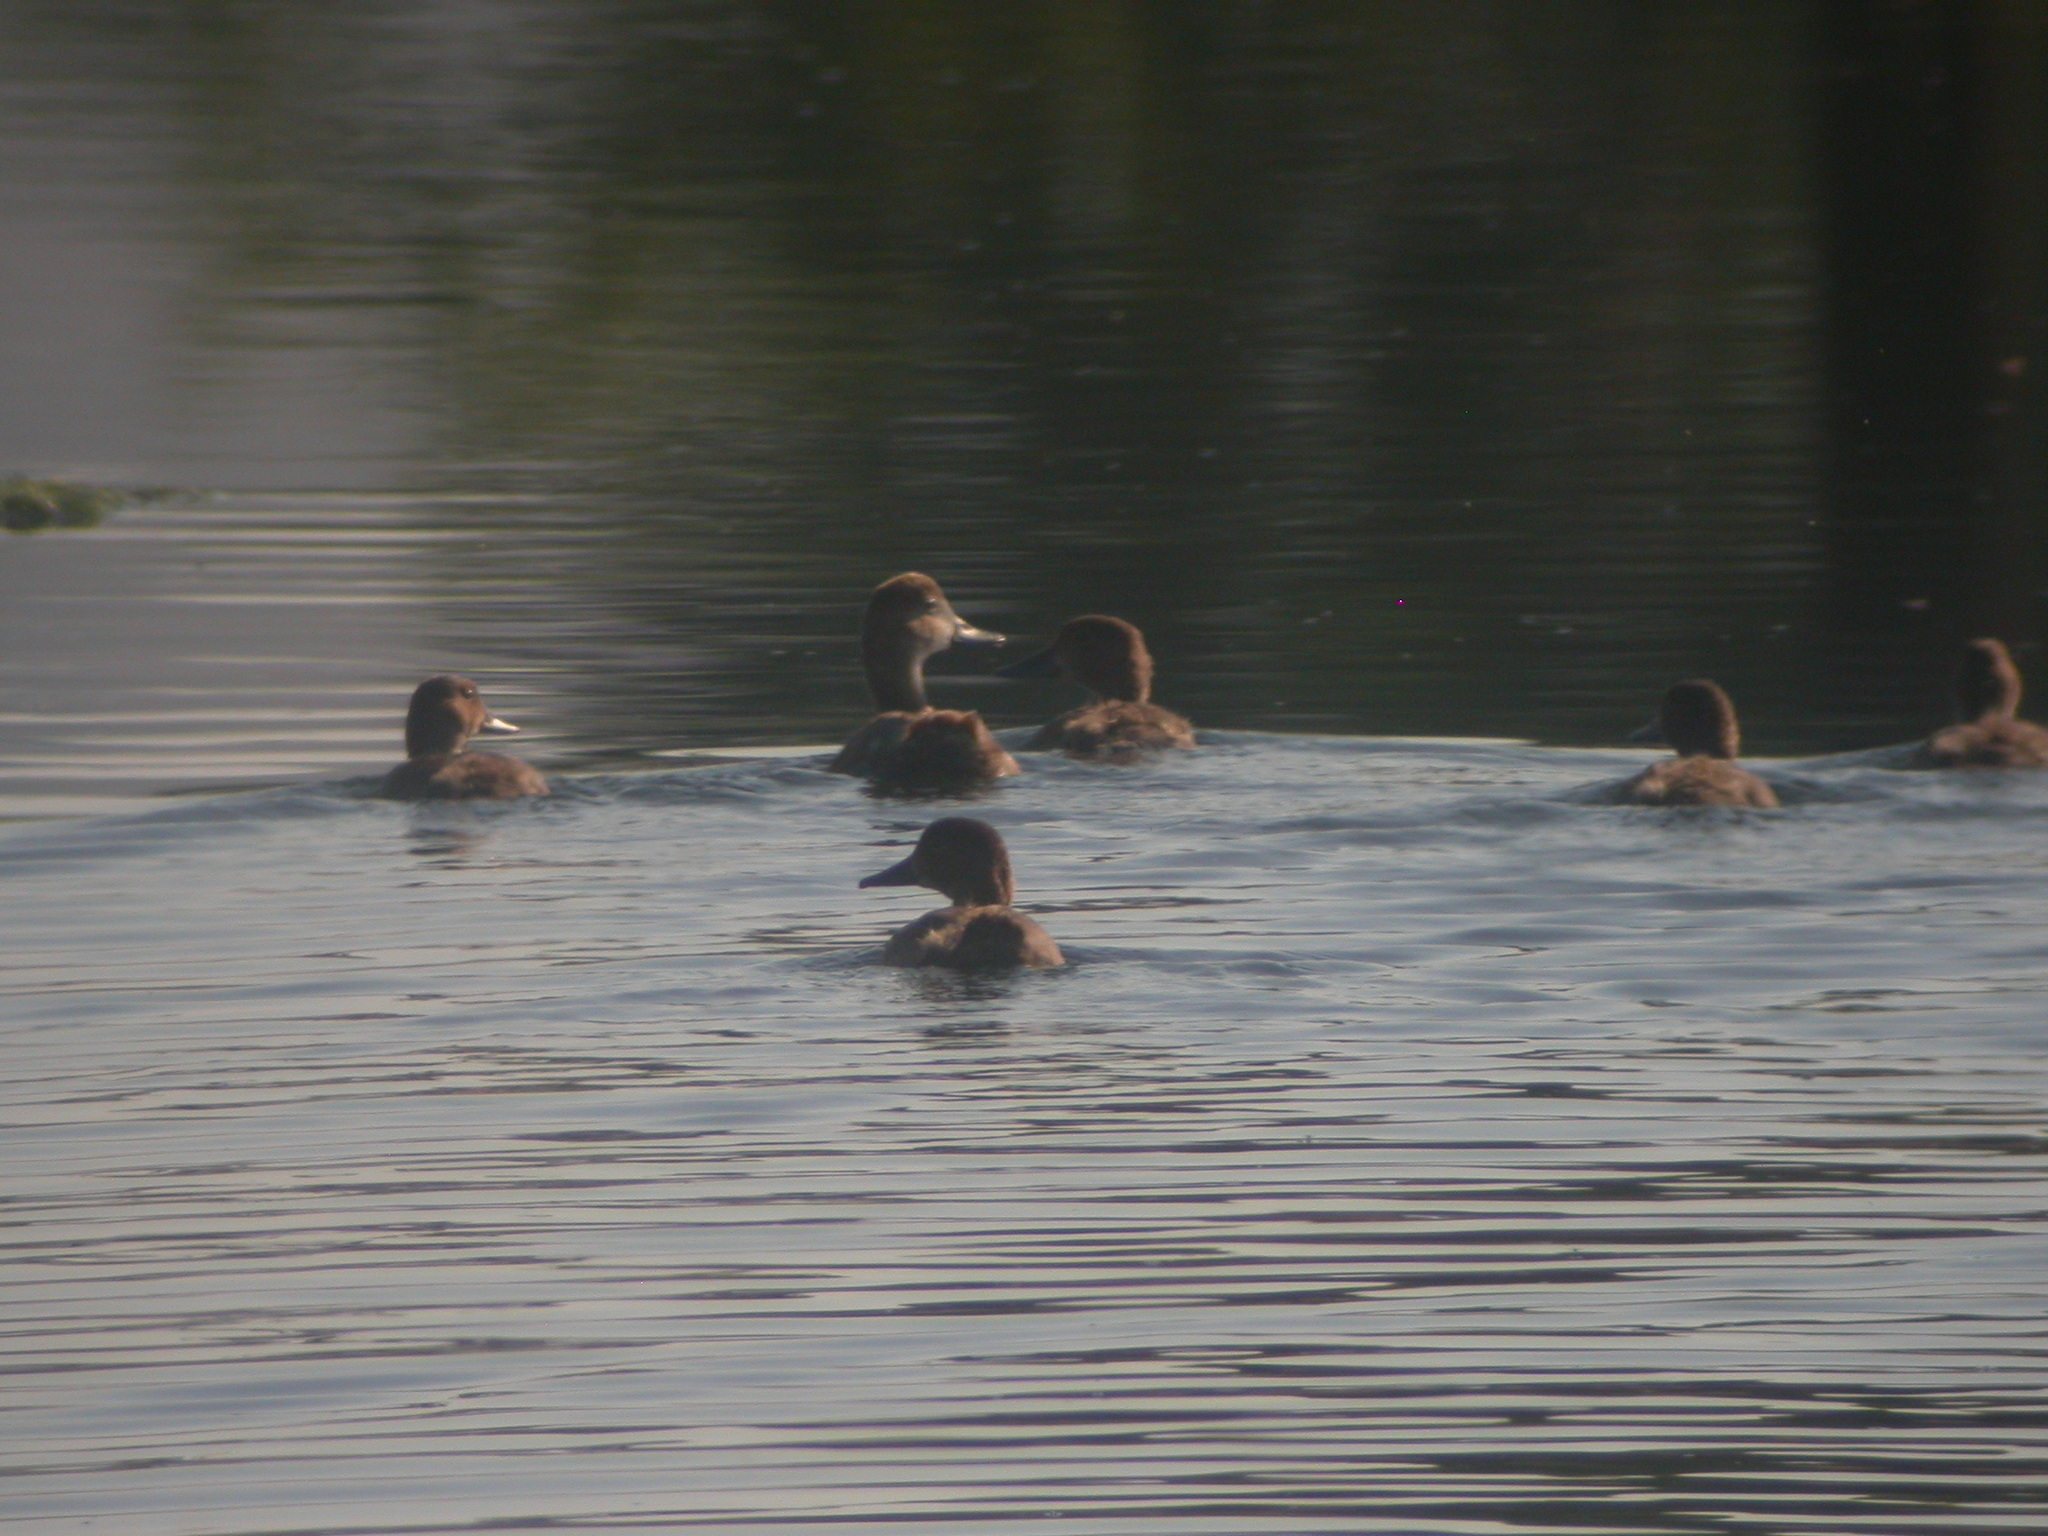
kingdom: Animalia
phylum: Chordata
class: Aves
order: Anseriformes
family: Anatidae
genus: Aythya
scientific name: Aythya americana
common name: Redhead
